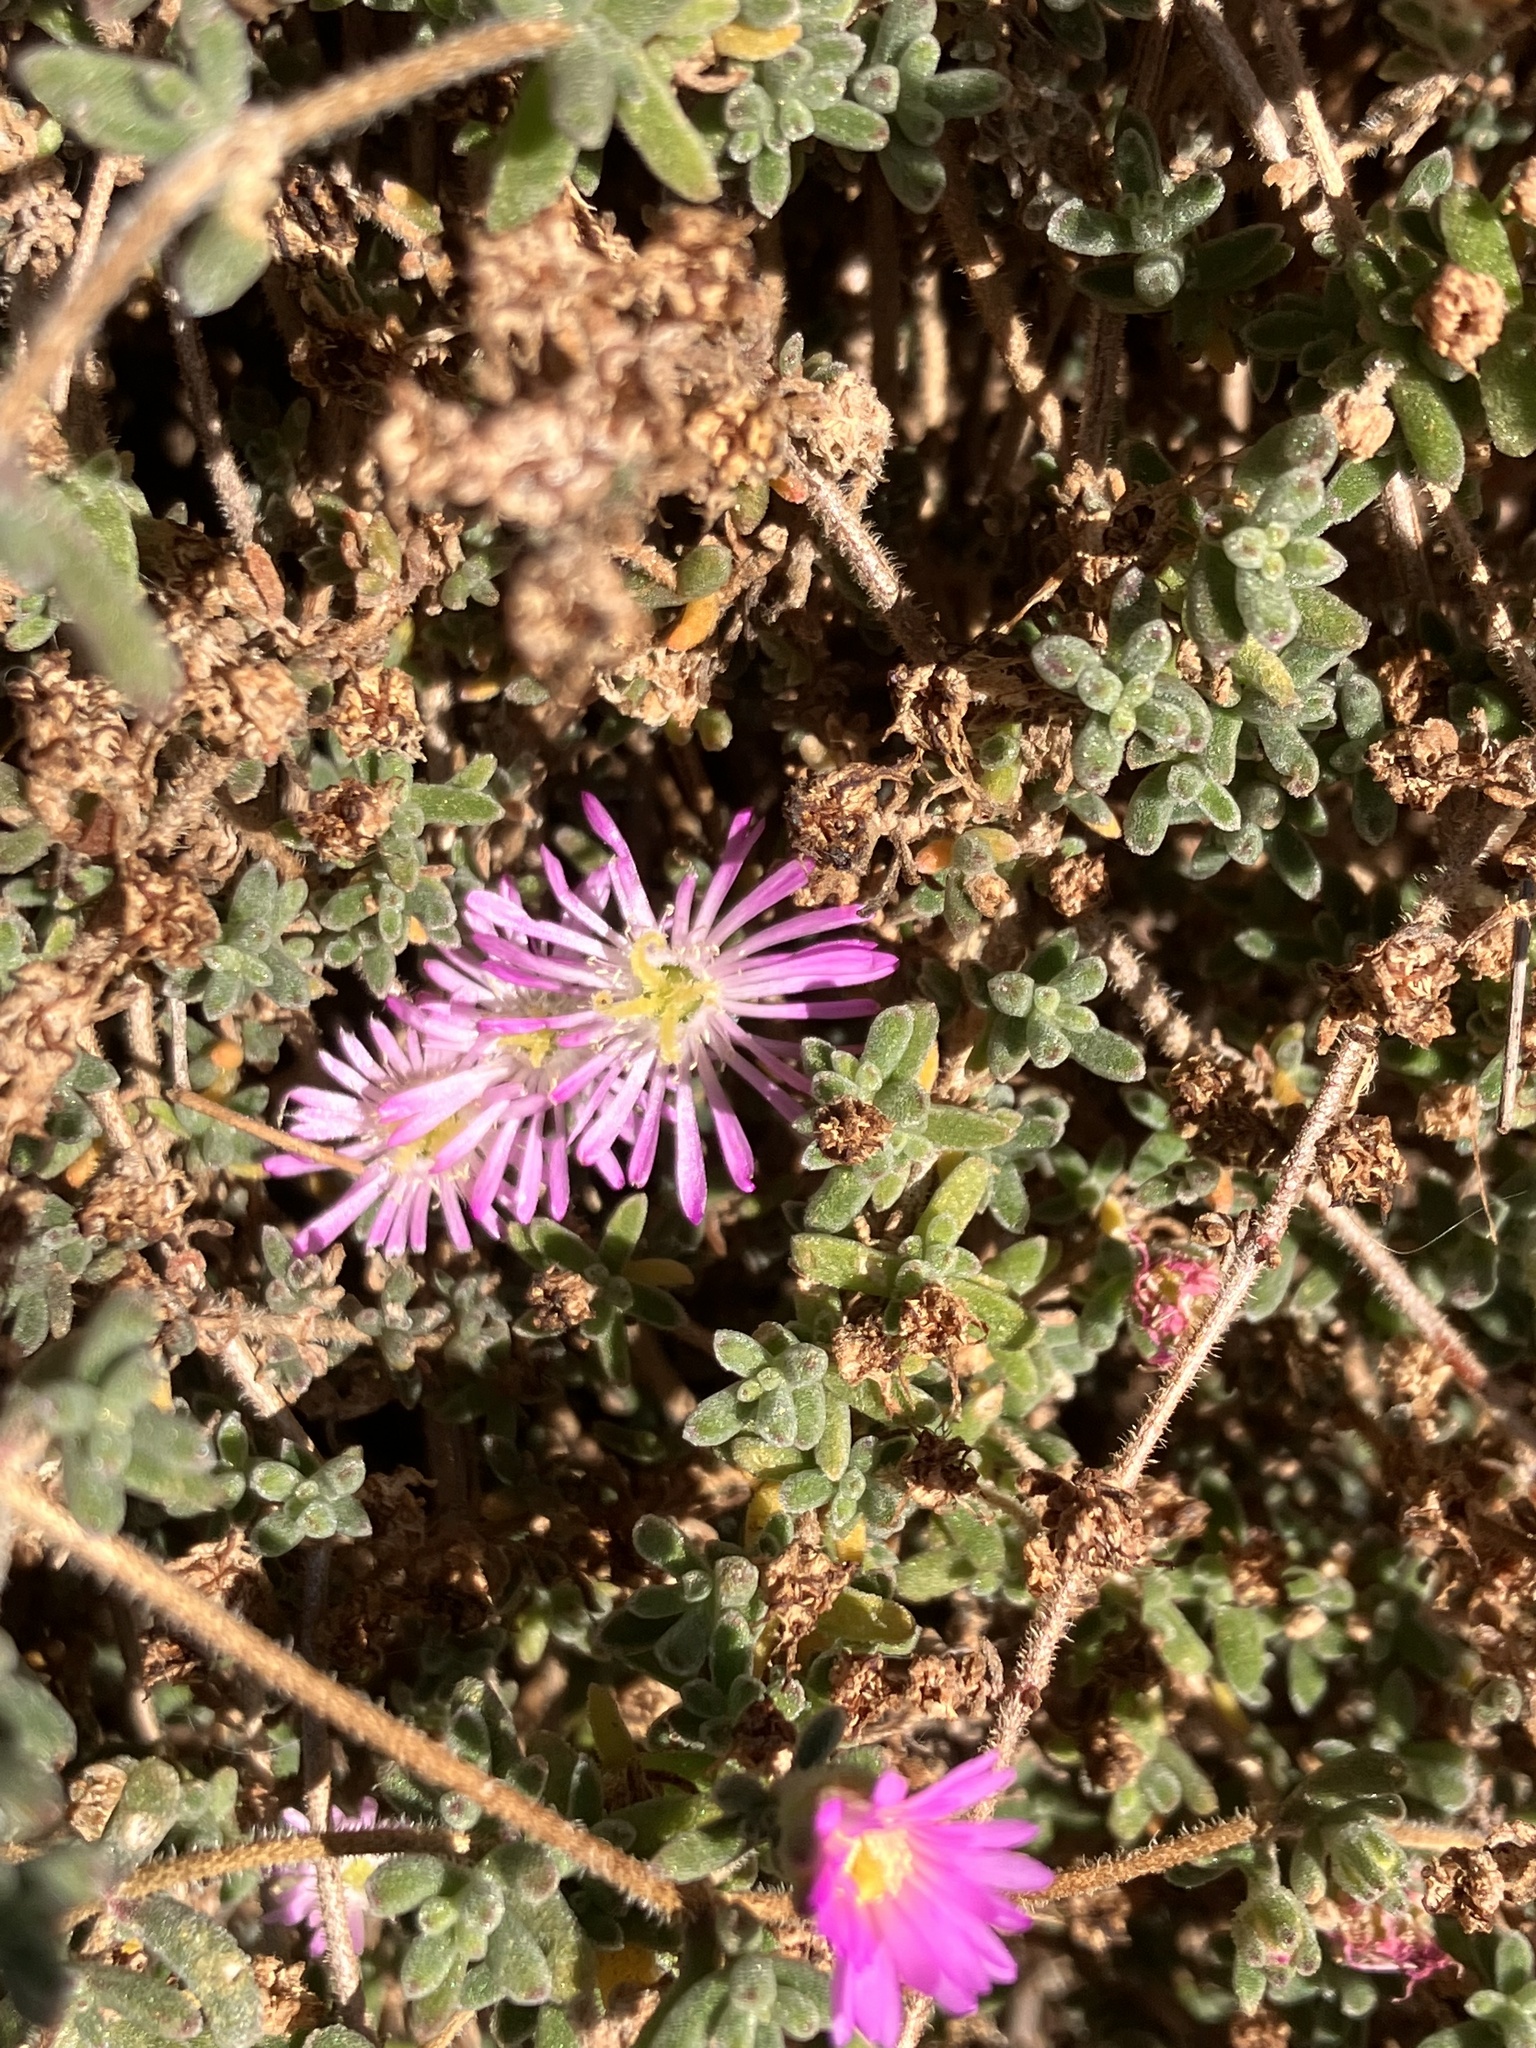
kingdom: Plantae
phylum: Tracheophyta
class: Magnoliopsida
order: Caryophyllales
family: Aizoaceae
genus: Drosanthemum
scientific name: Drosanthemum floribundum
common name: Pale dewplant
